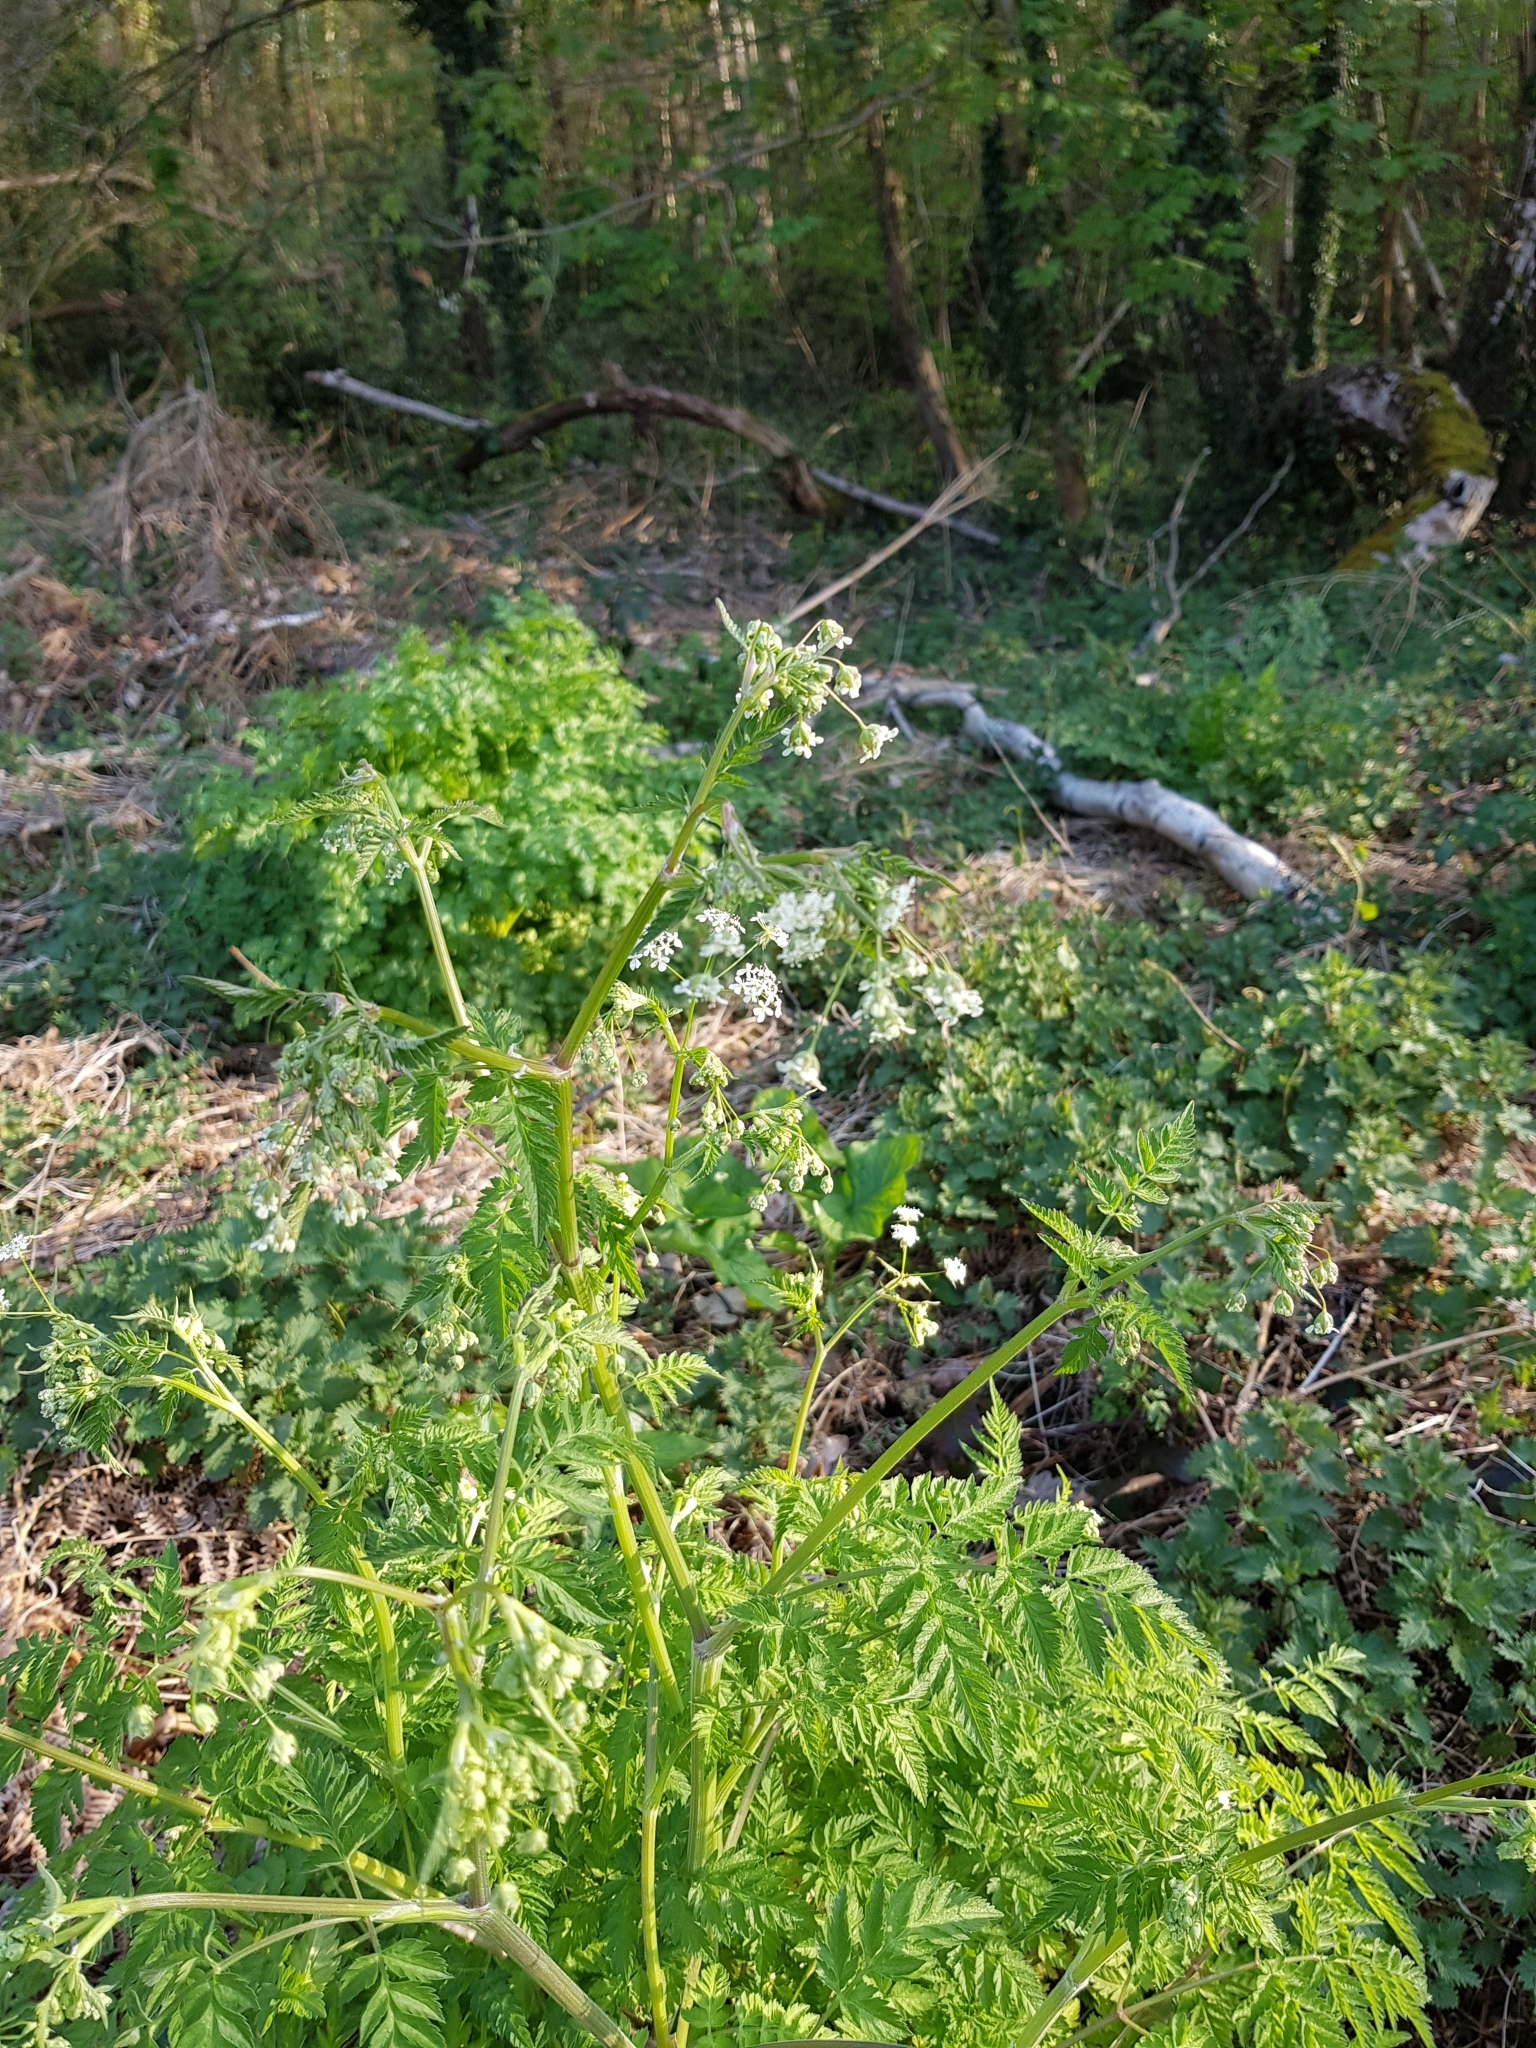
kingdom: Plantae
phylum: Tracheophyta
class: Magnoliopsida
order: Apiales
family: Apiaceae
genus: Anthriscus
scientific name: Anthriscus sylvestris
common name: Cow parsley
